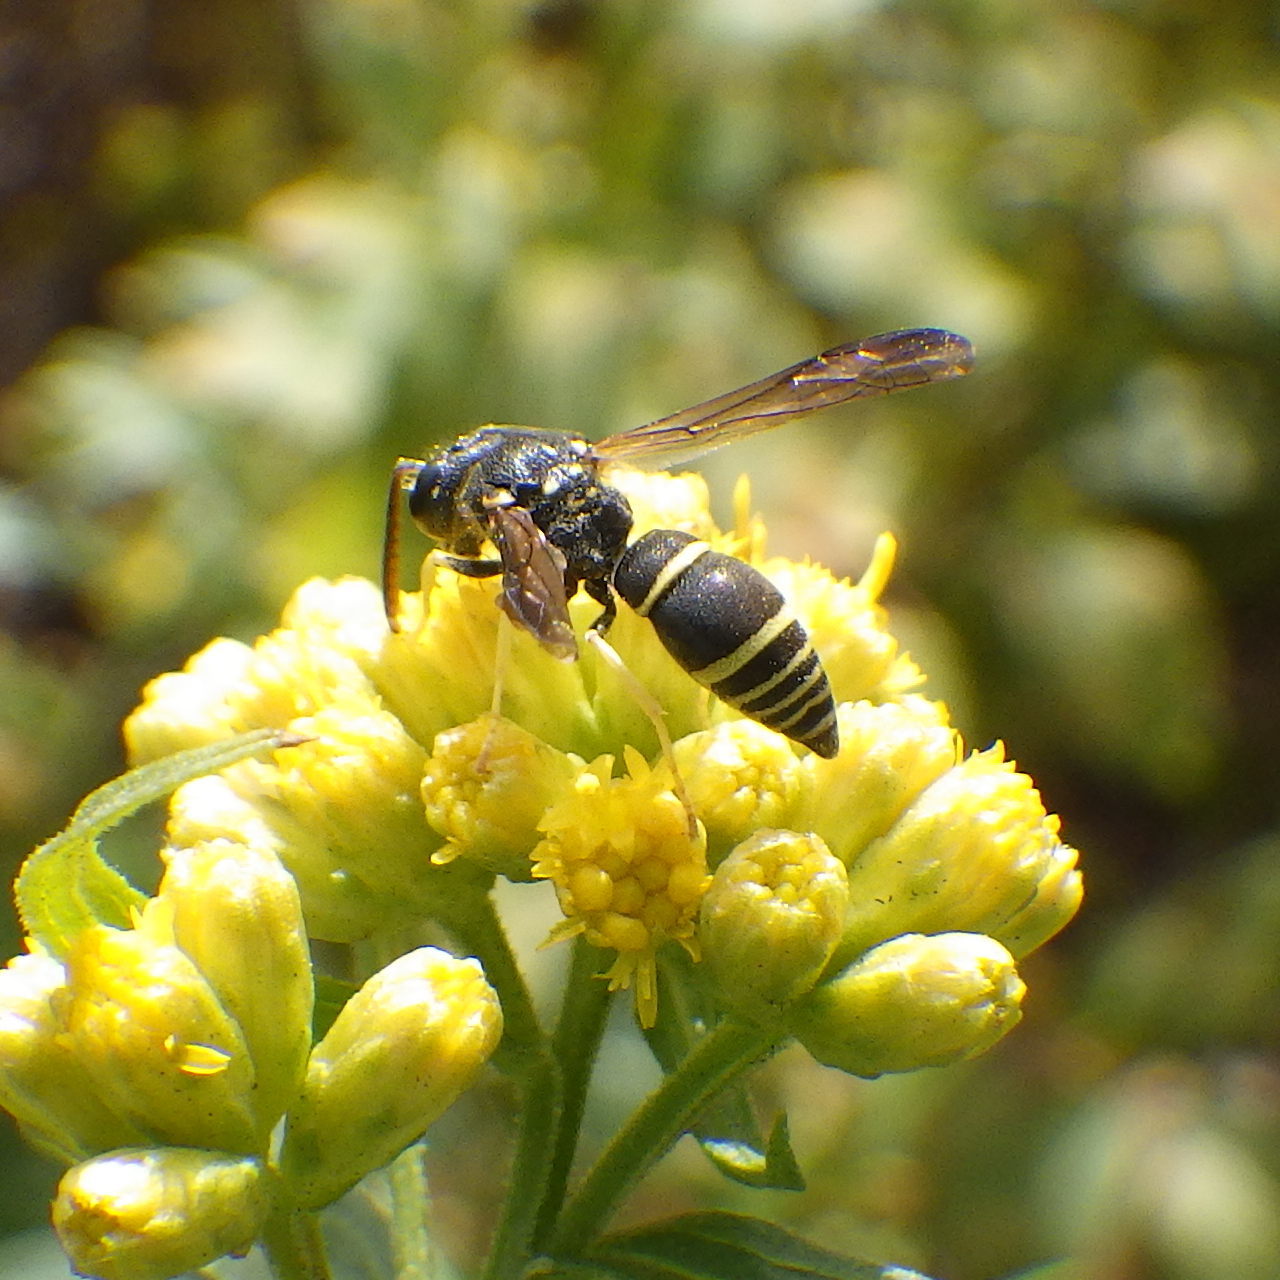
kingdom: Animalia
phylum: Arthropoda
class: Insecta
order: Hymenoptera
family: Vespidae
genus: Ancistrocerus
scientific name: Ancistrocerus adiabatus
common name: Bramble mason wasp
